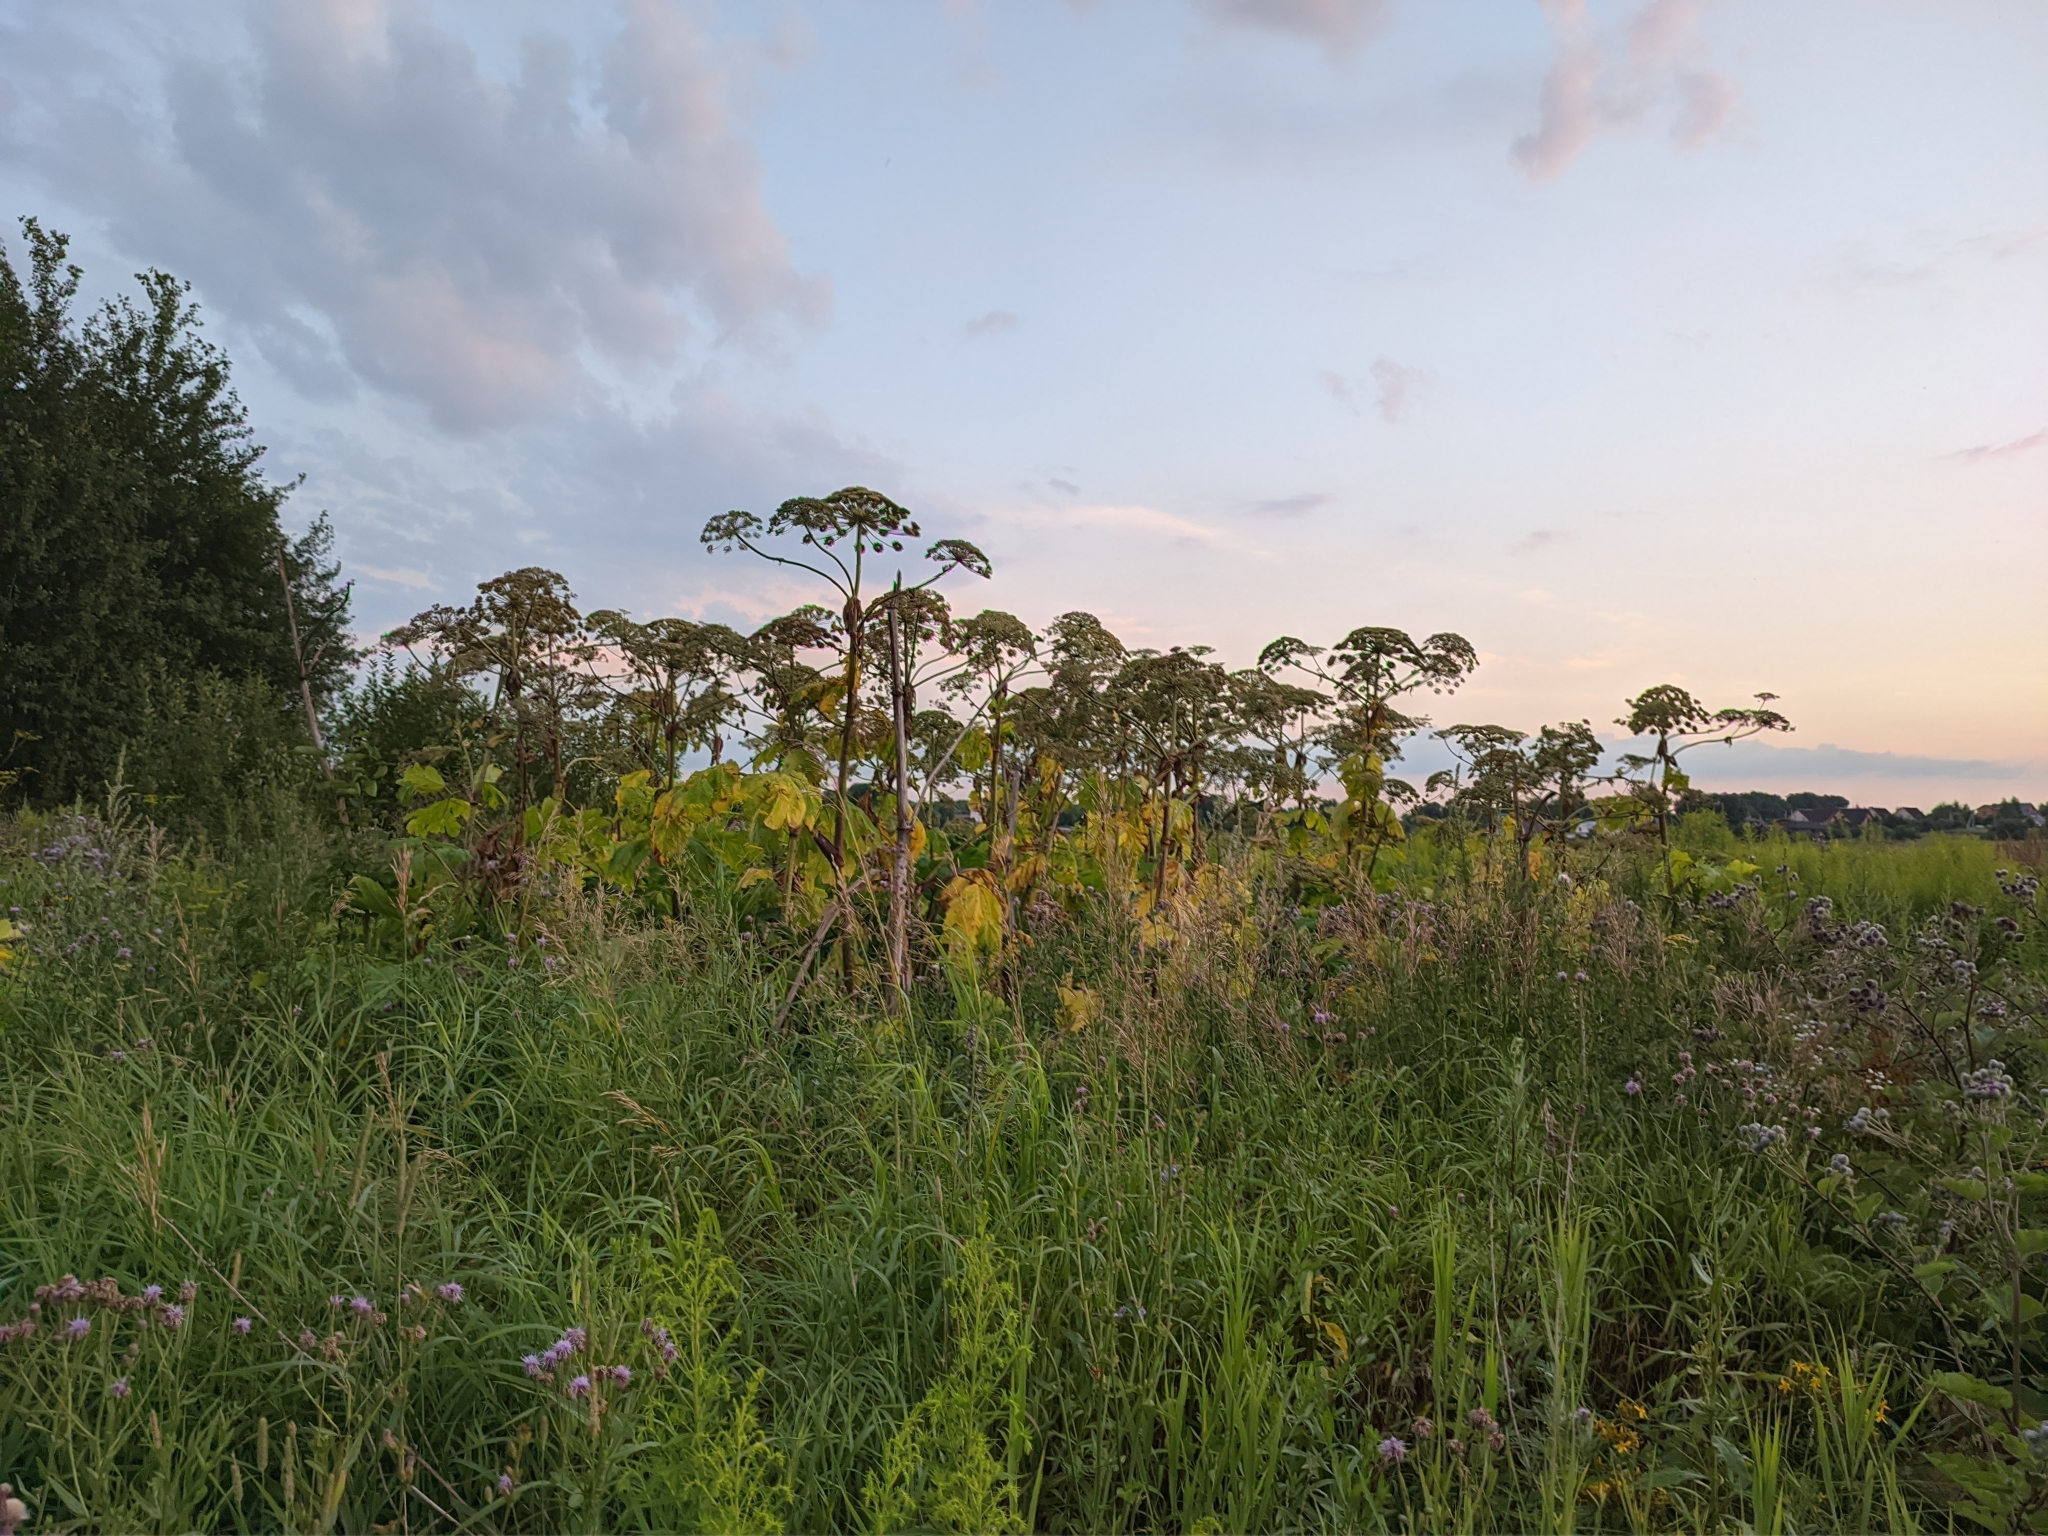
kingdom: Plantae
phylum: Tracheophyta
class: Magnoliopsida
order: Apiales
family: Apiaceae
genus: Heracleum
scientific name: Heracleum sosnowskyi
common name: Sosnowsky's hogweed
